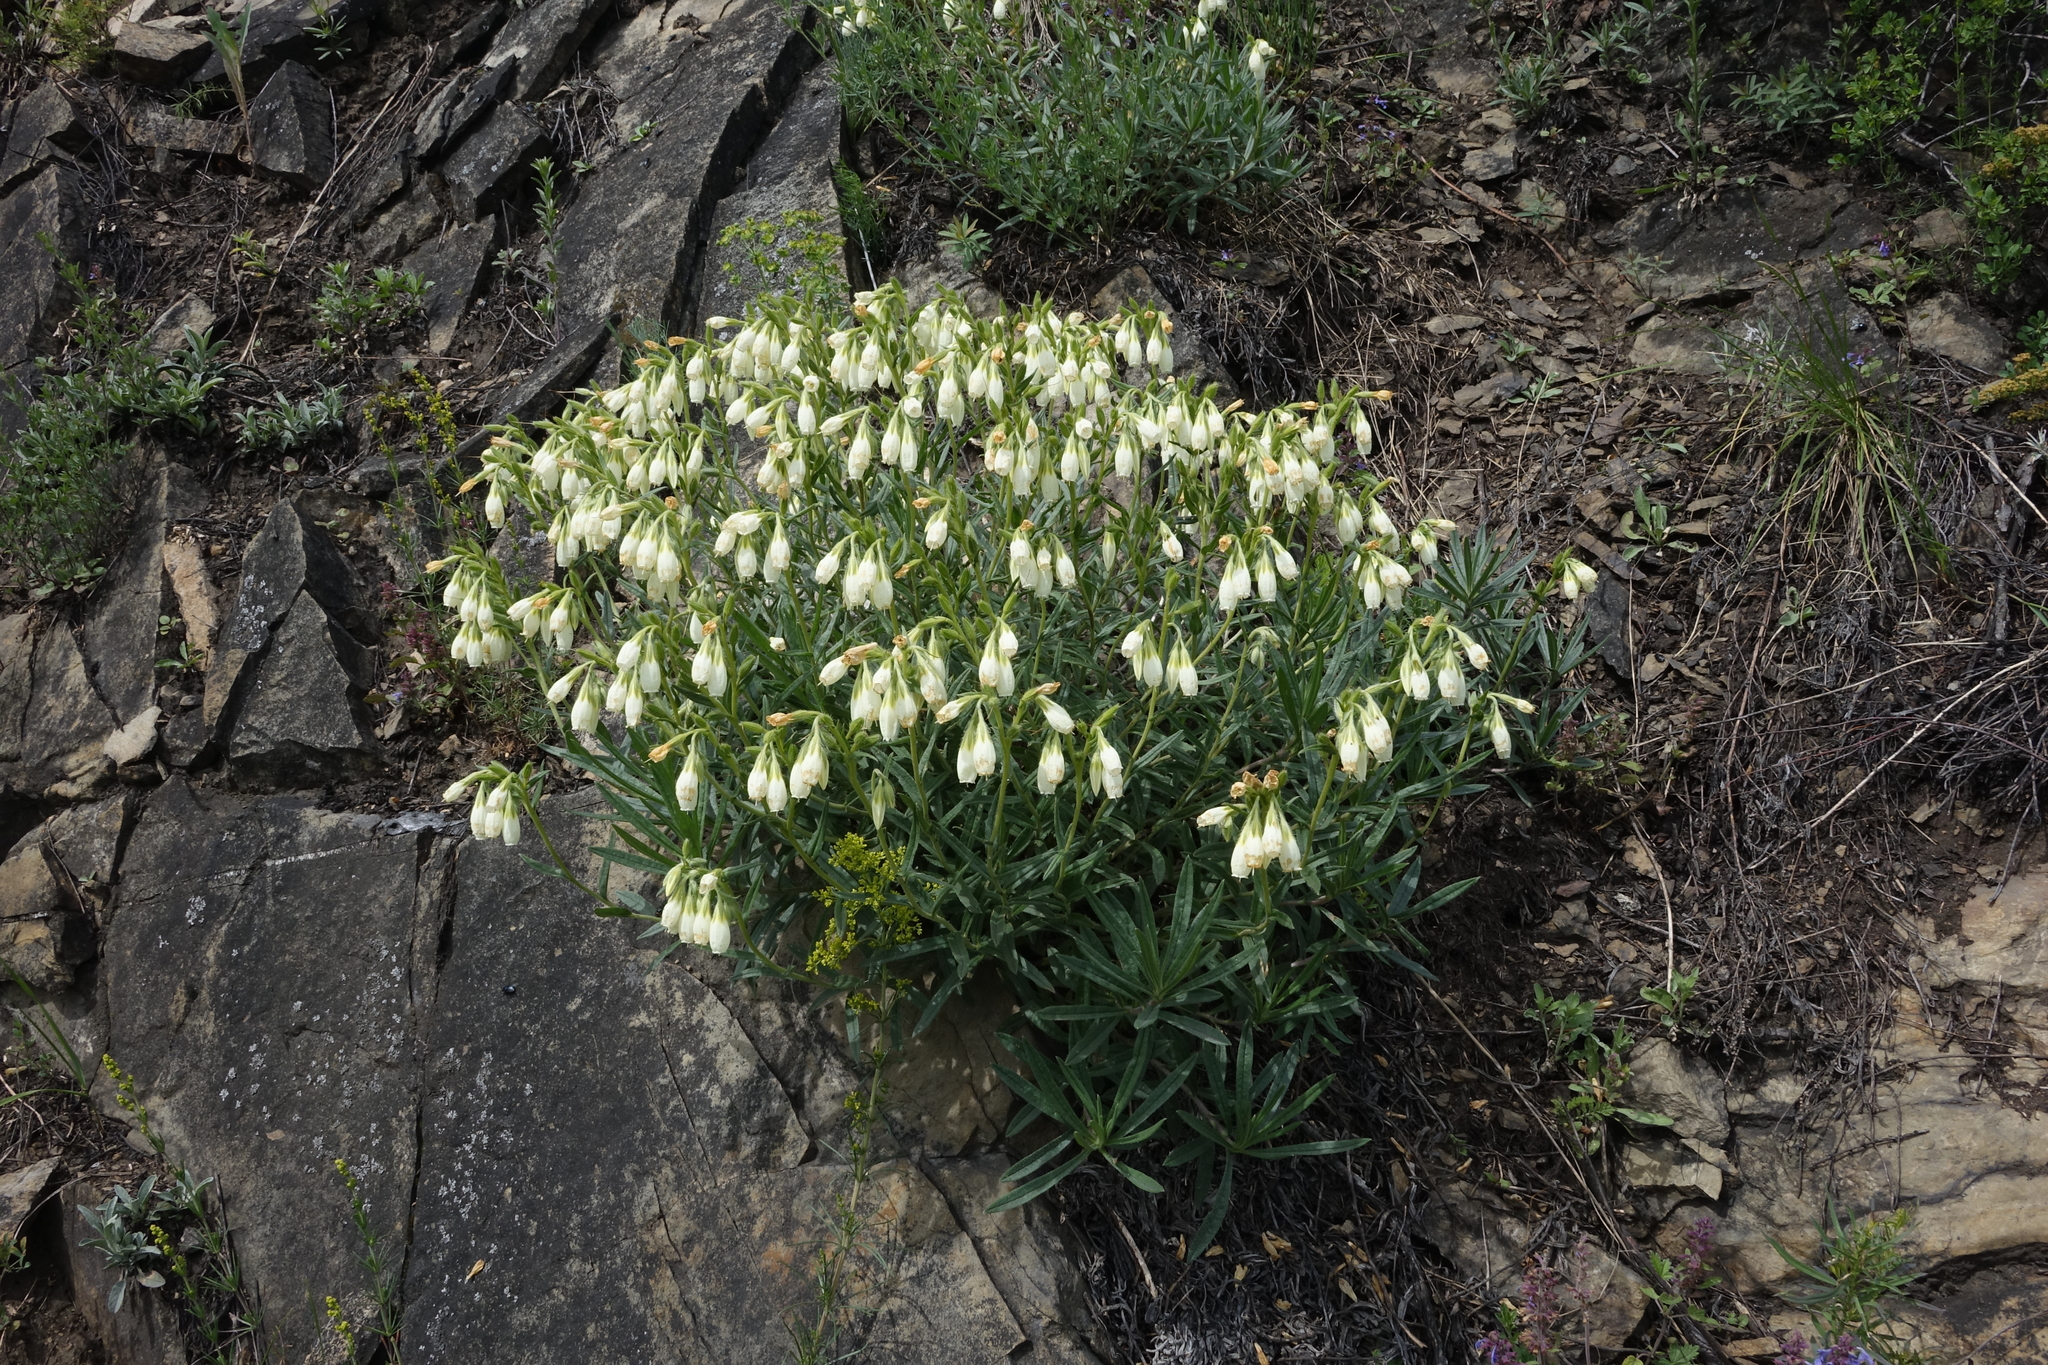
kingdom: Plantae
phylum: Tracheophyta
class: Magnoliopsida
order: Boraginales
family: Boraginaceae
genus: Onosma
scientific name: Onosma simplicissima
